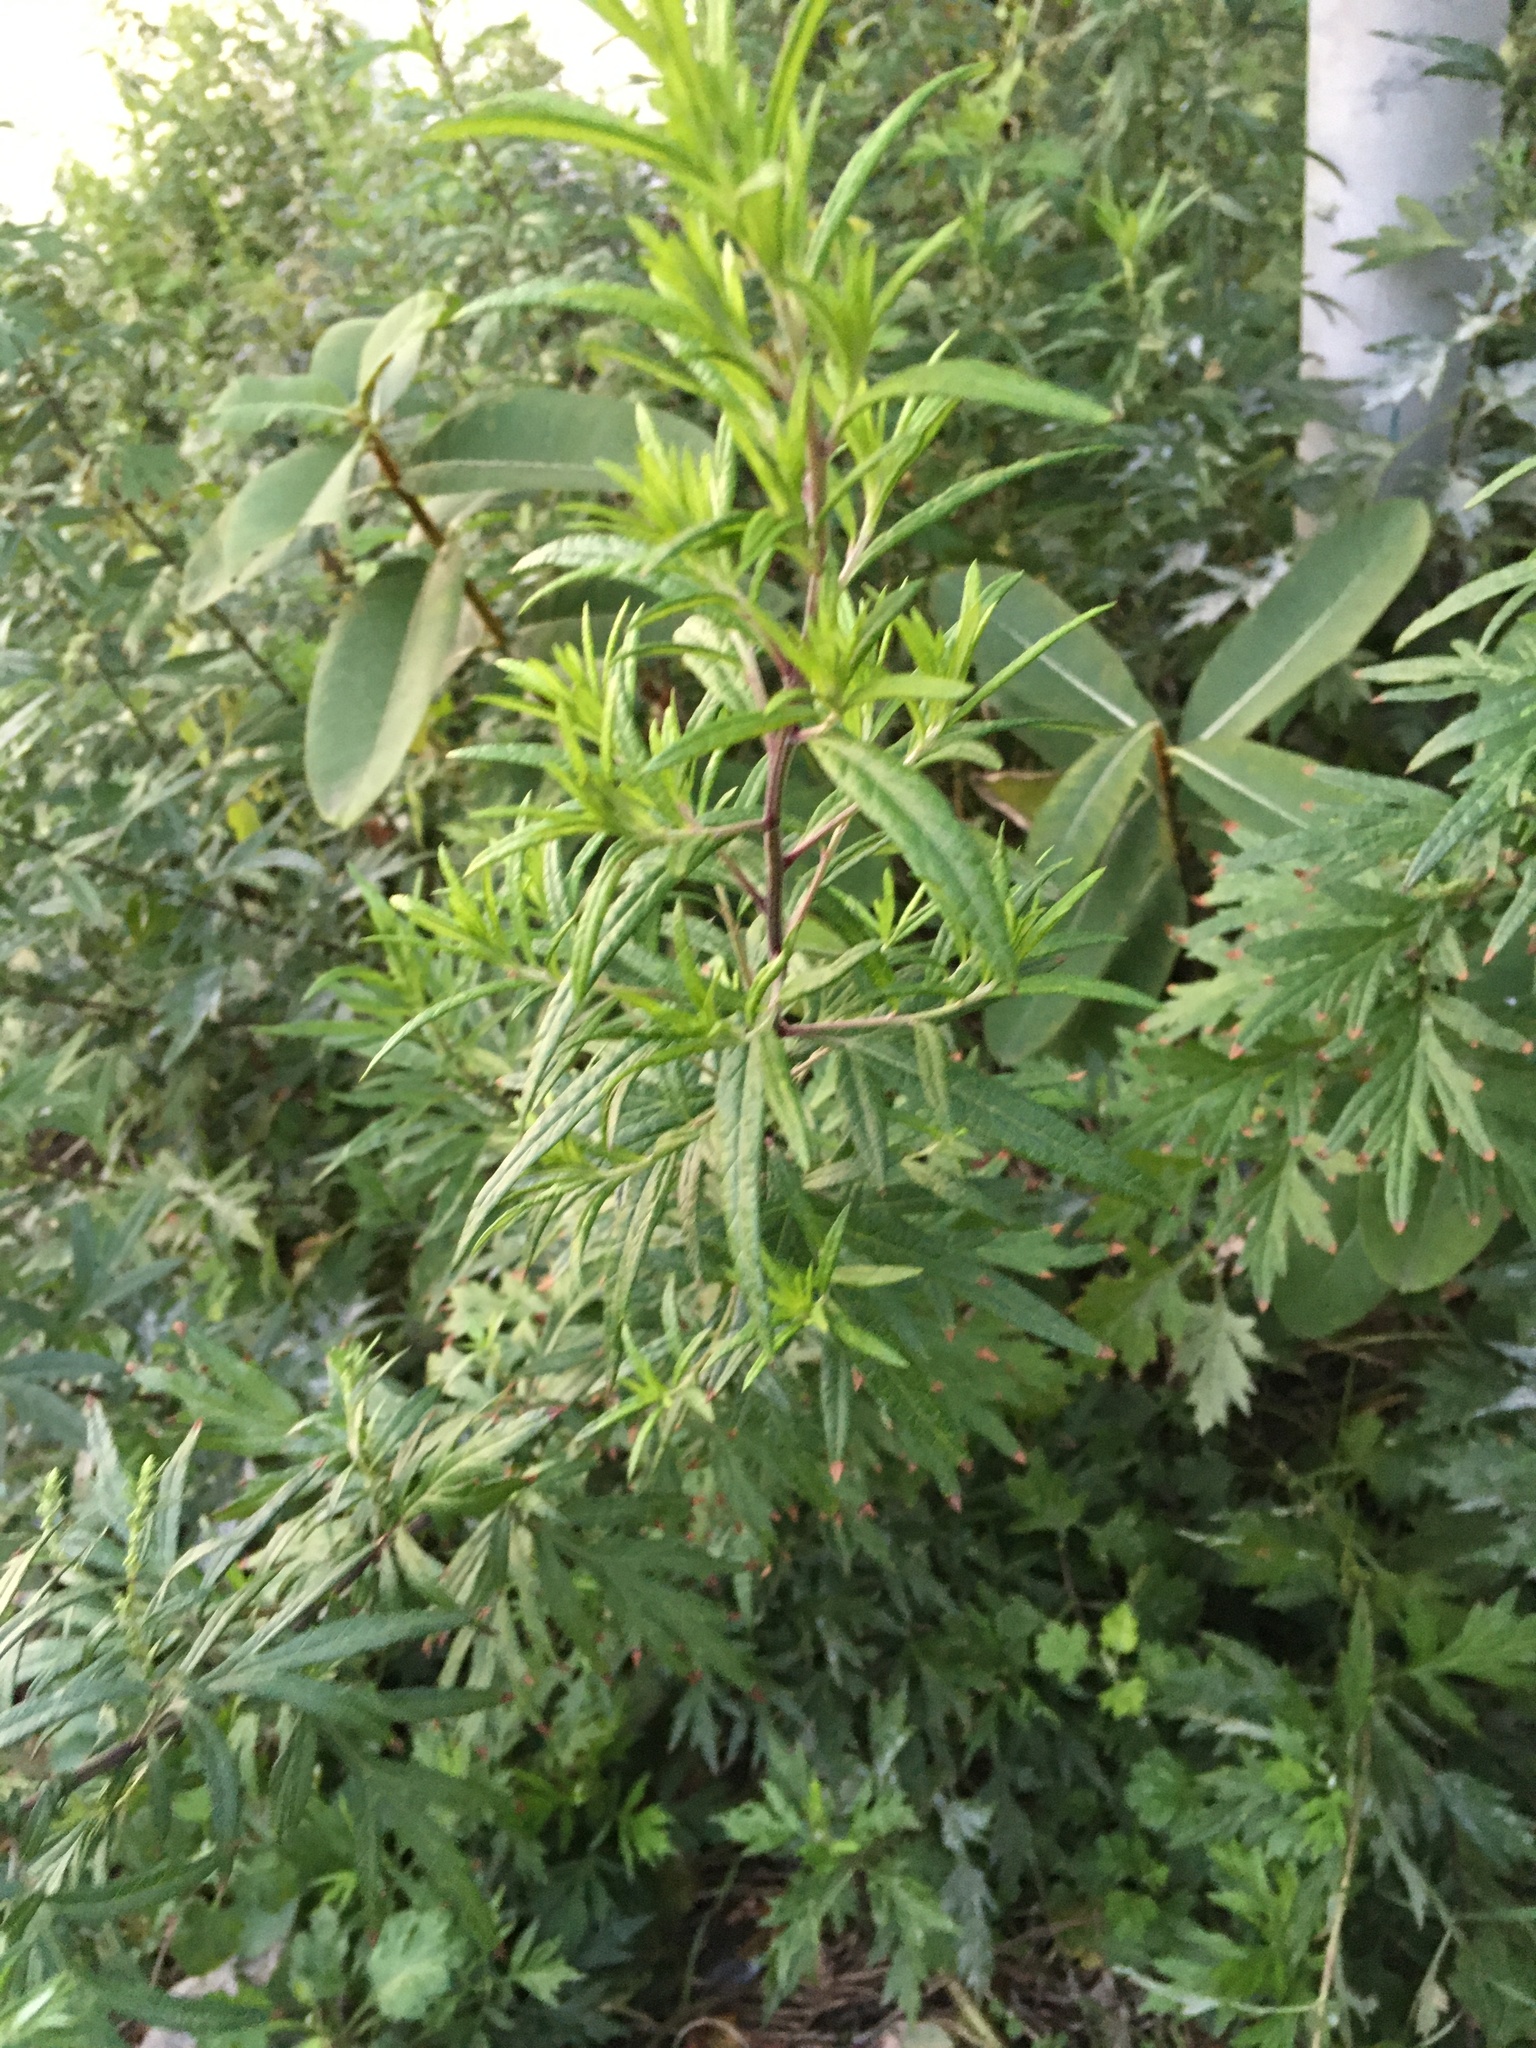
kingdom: Plantae
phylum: Tracheophyta
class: Magnoliopsida
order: Asterales
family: Asteraceae
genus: Artemisia
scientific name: Artemisia vulgaris
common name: Mugwort
